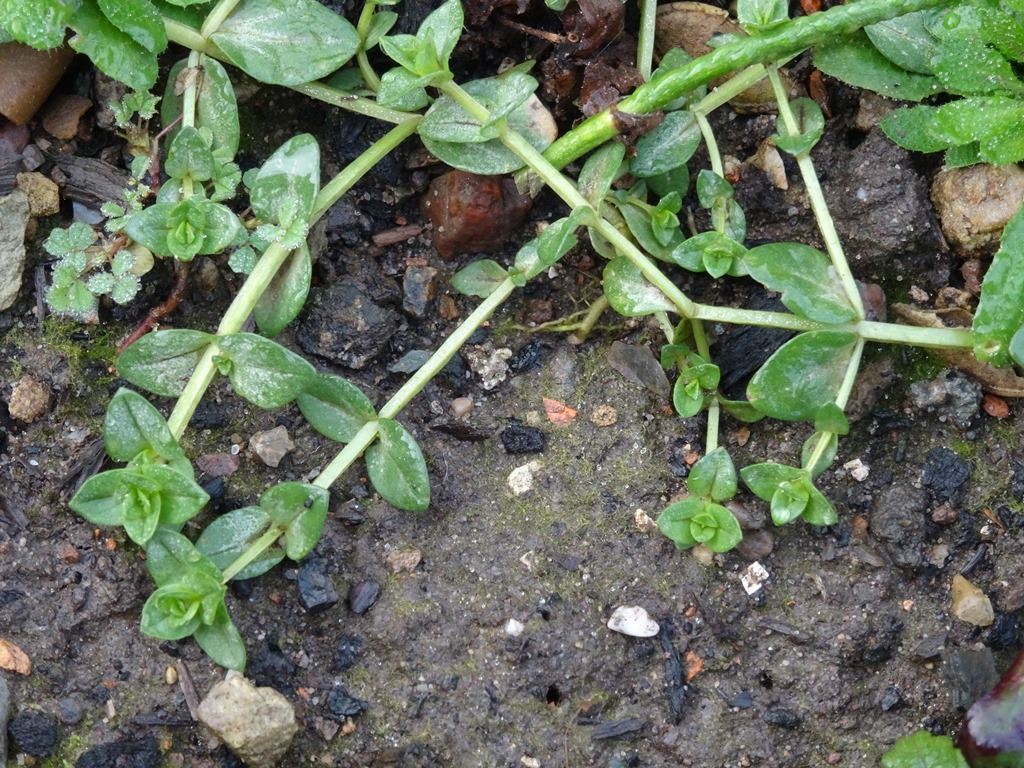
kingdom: Plantae
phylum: Tracheophyta
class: Magnoliopsida
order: Ericales
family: Primulaceae
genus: Lysimachia
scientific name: Lysimachia arvensis
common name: Scarlet pimpernel
